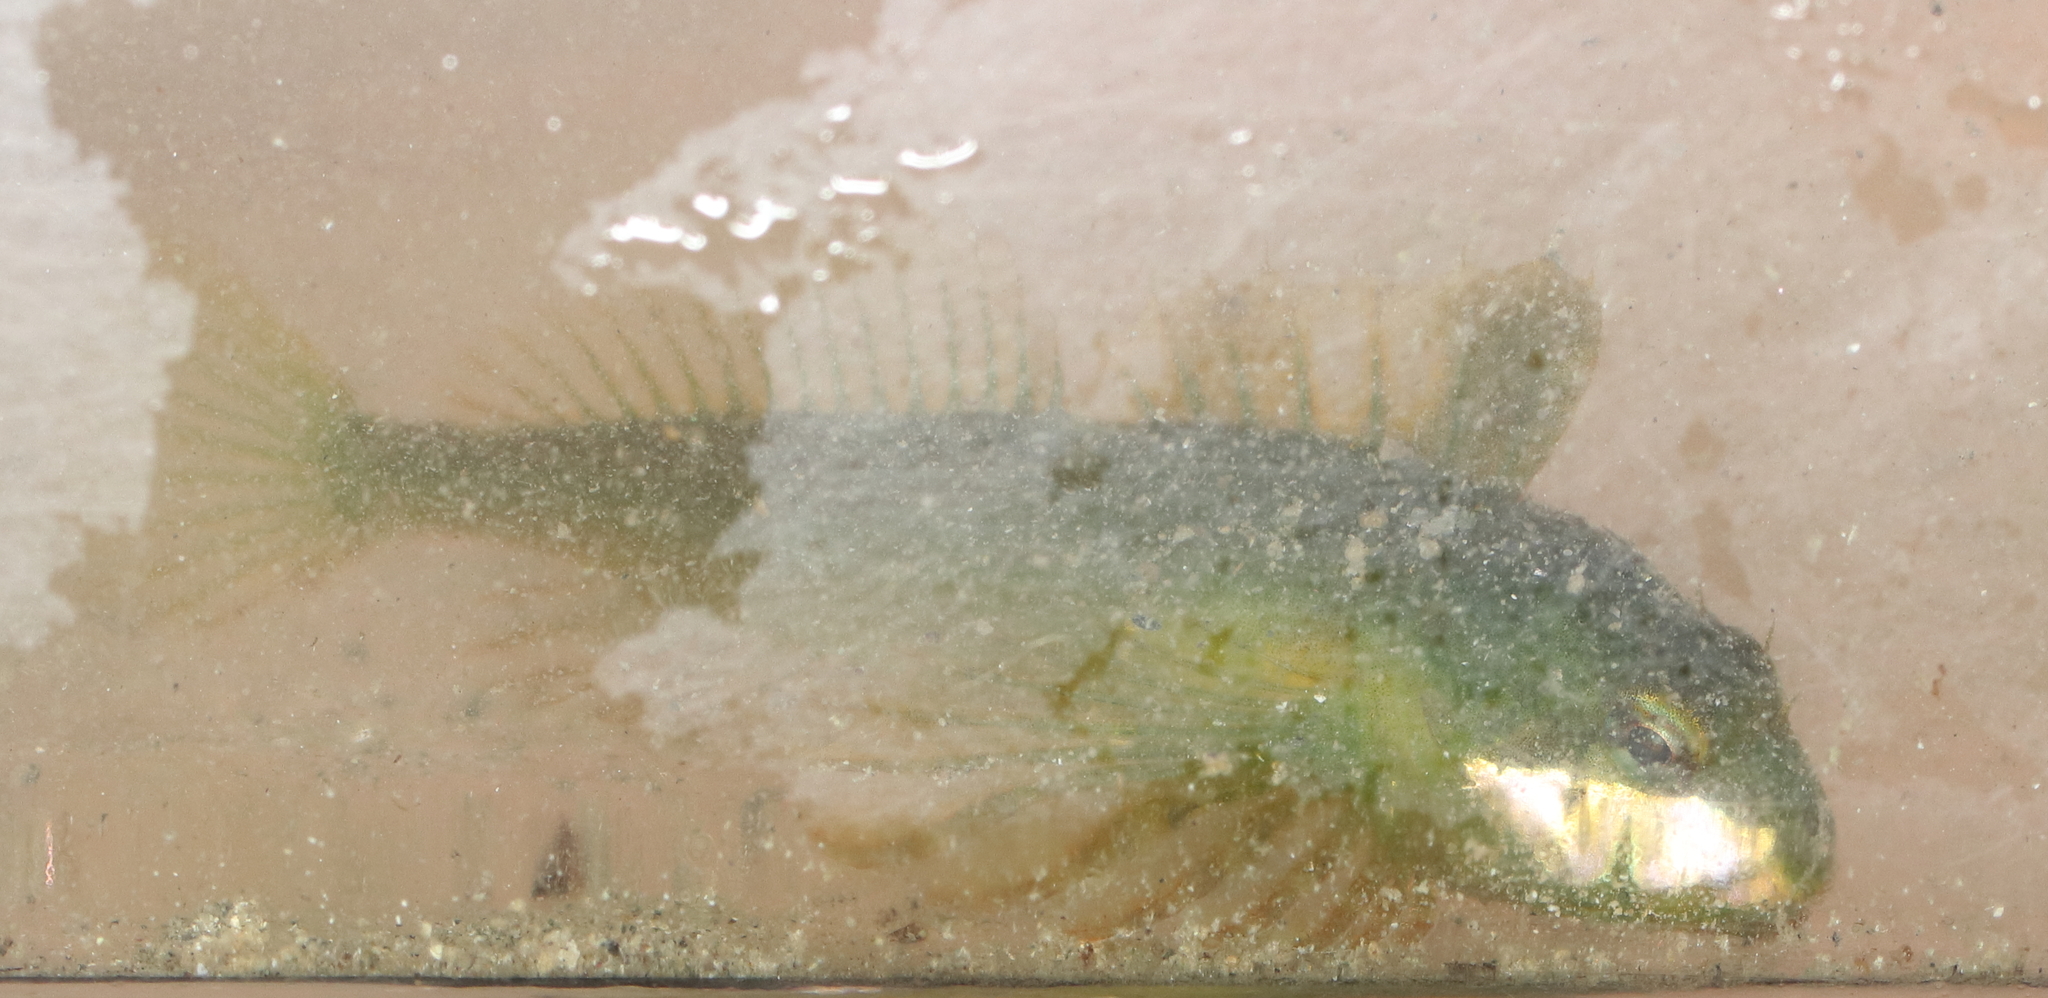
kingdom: Animalia
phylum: Chordata
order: Scorpaeniformes
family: Cottidae
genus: Clinocottus
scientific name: Clinocottus acuticeps
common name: Sharpnose sculpin
